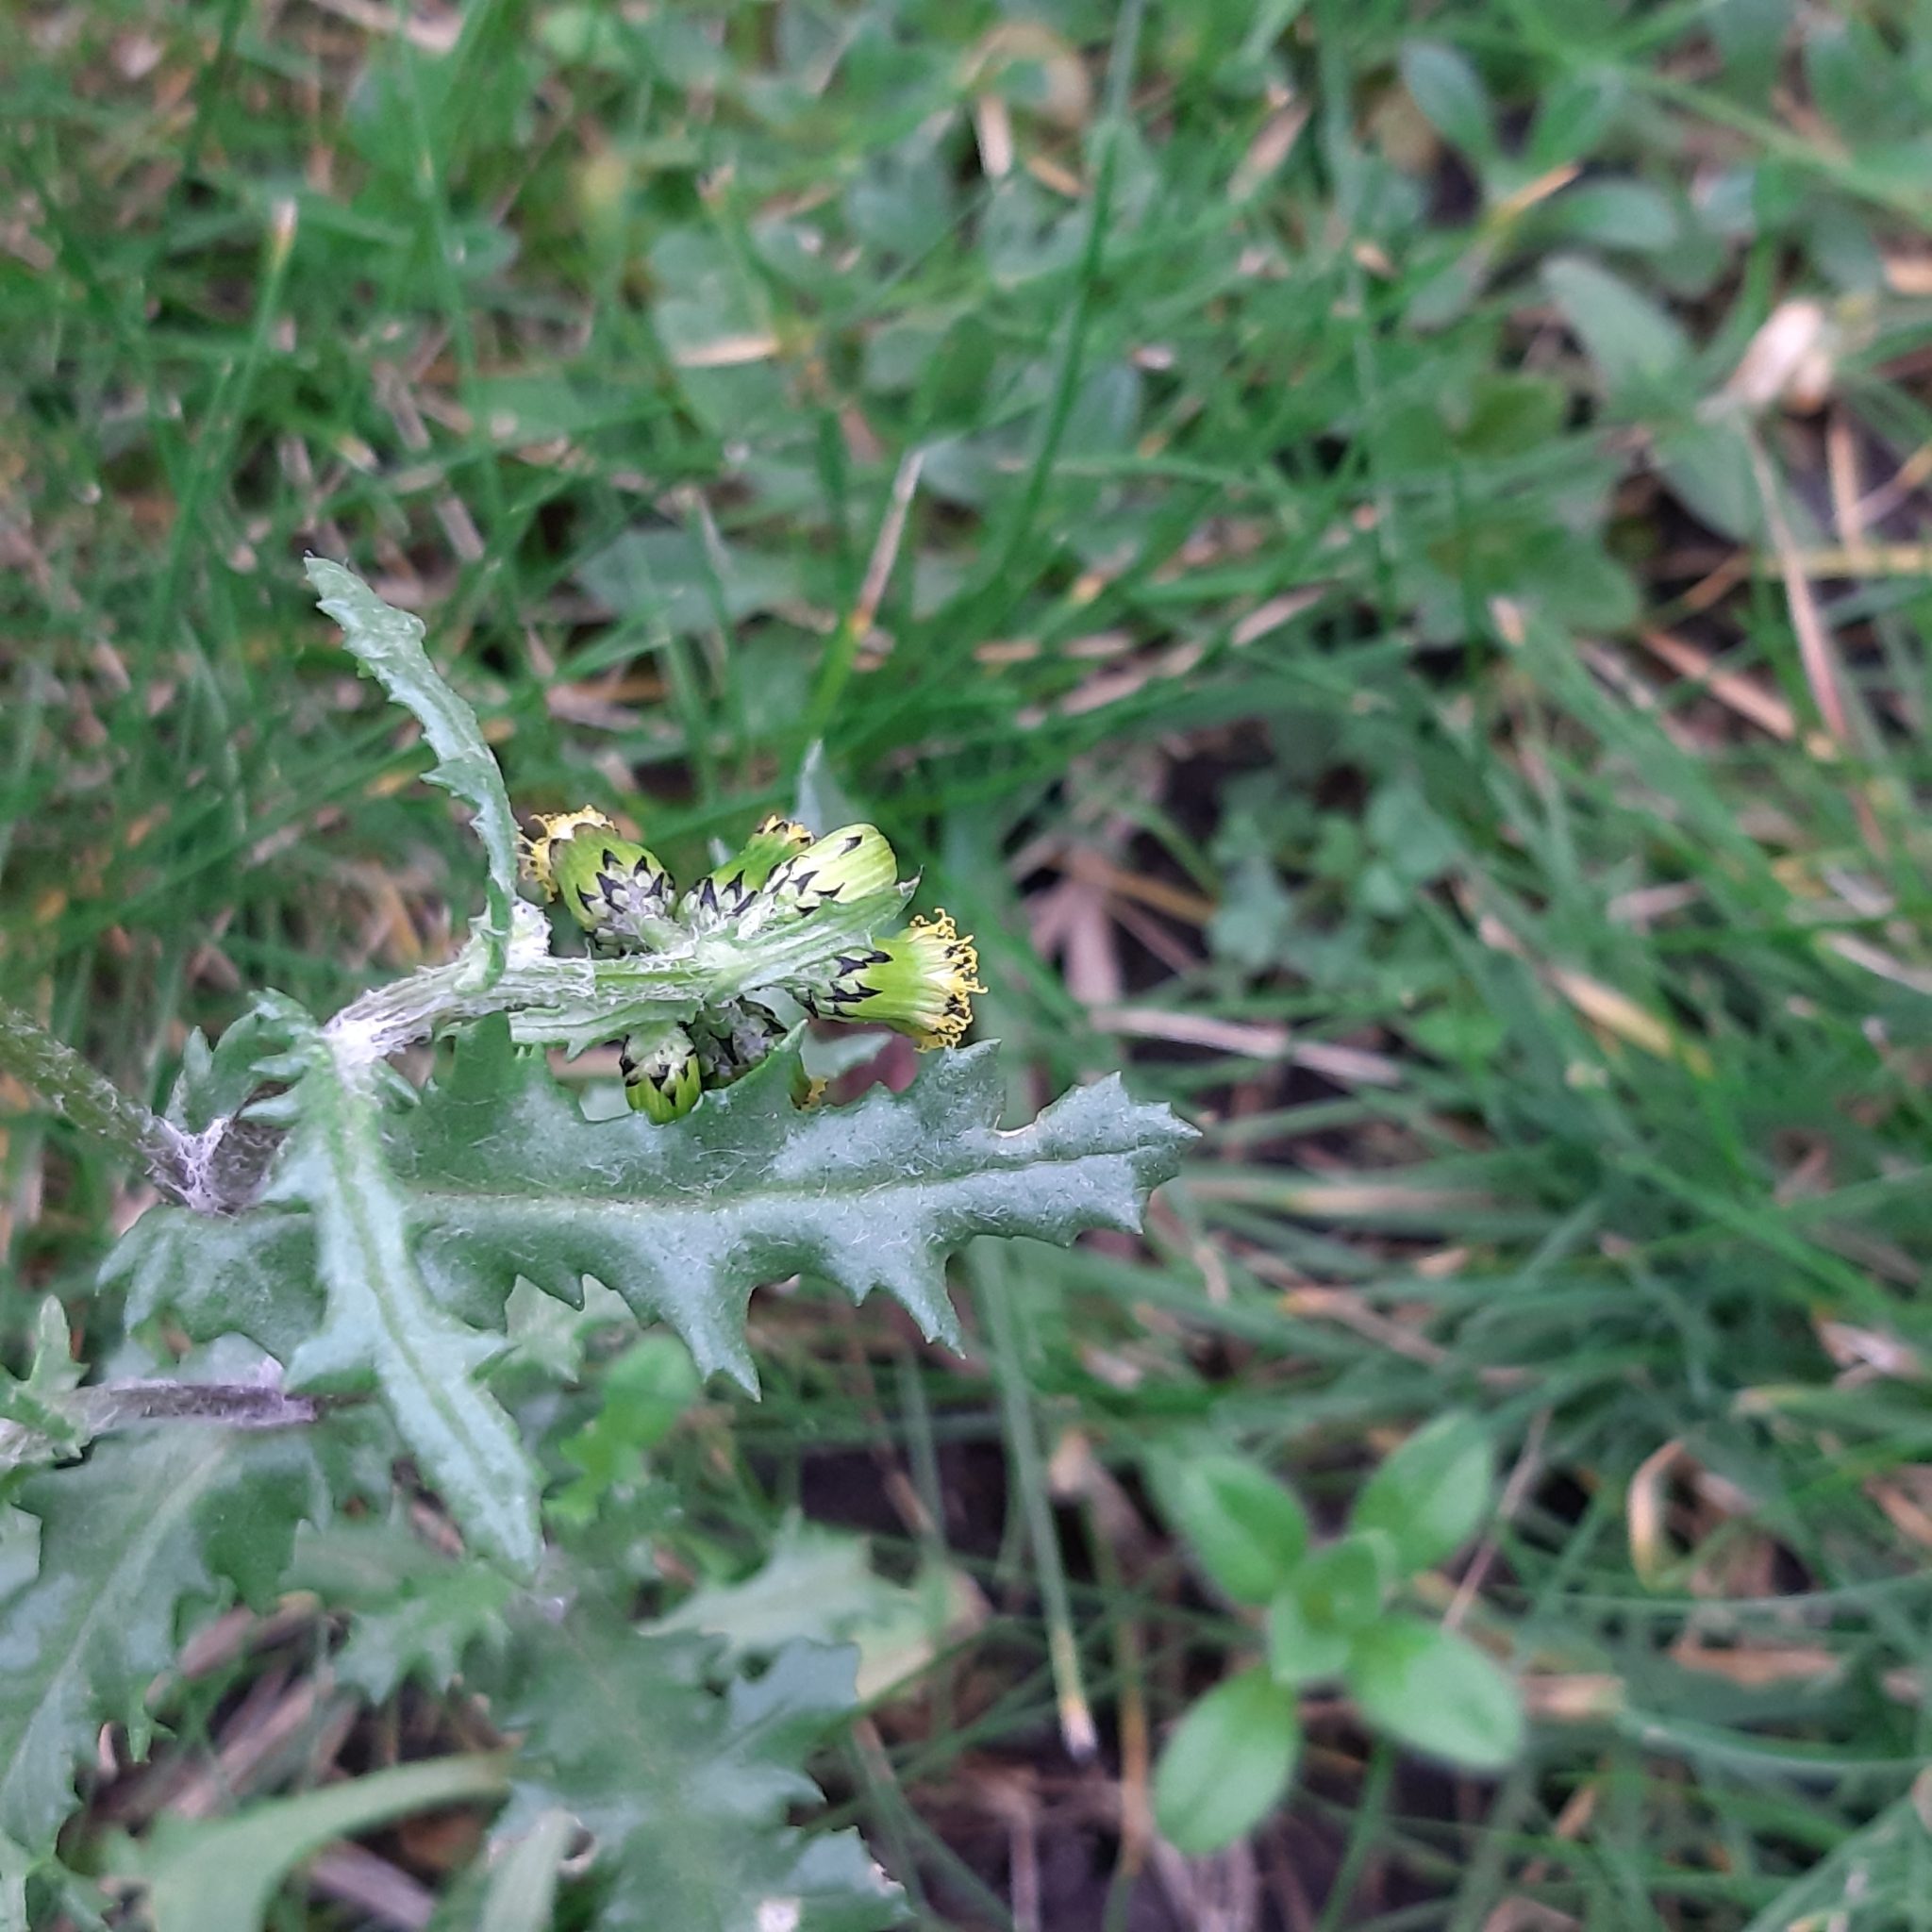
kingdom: Plantae
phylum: Tracheophyta
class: Magnoliopsida
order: Asterales
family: Asteraceae
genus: Senecio
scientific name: Senecio vulgaris
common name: Old-man-in-the-spring
